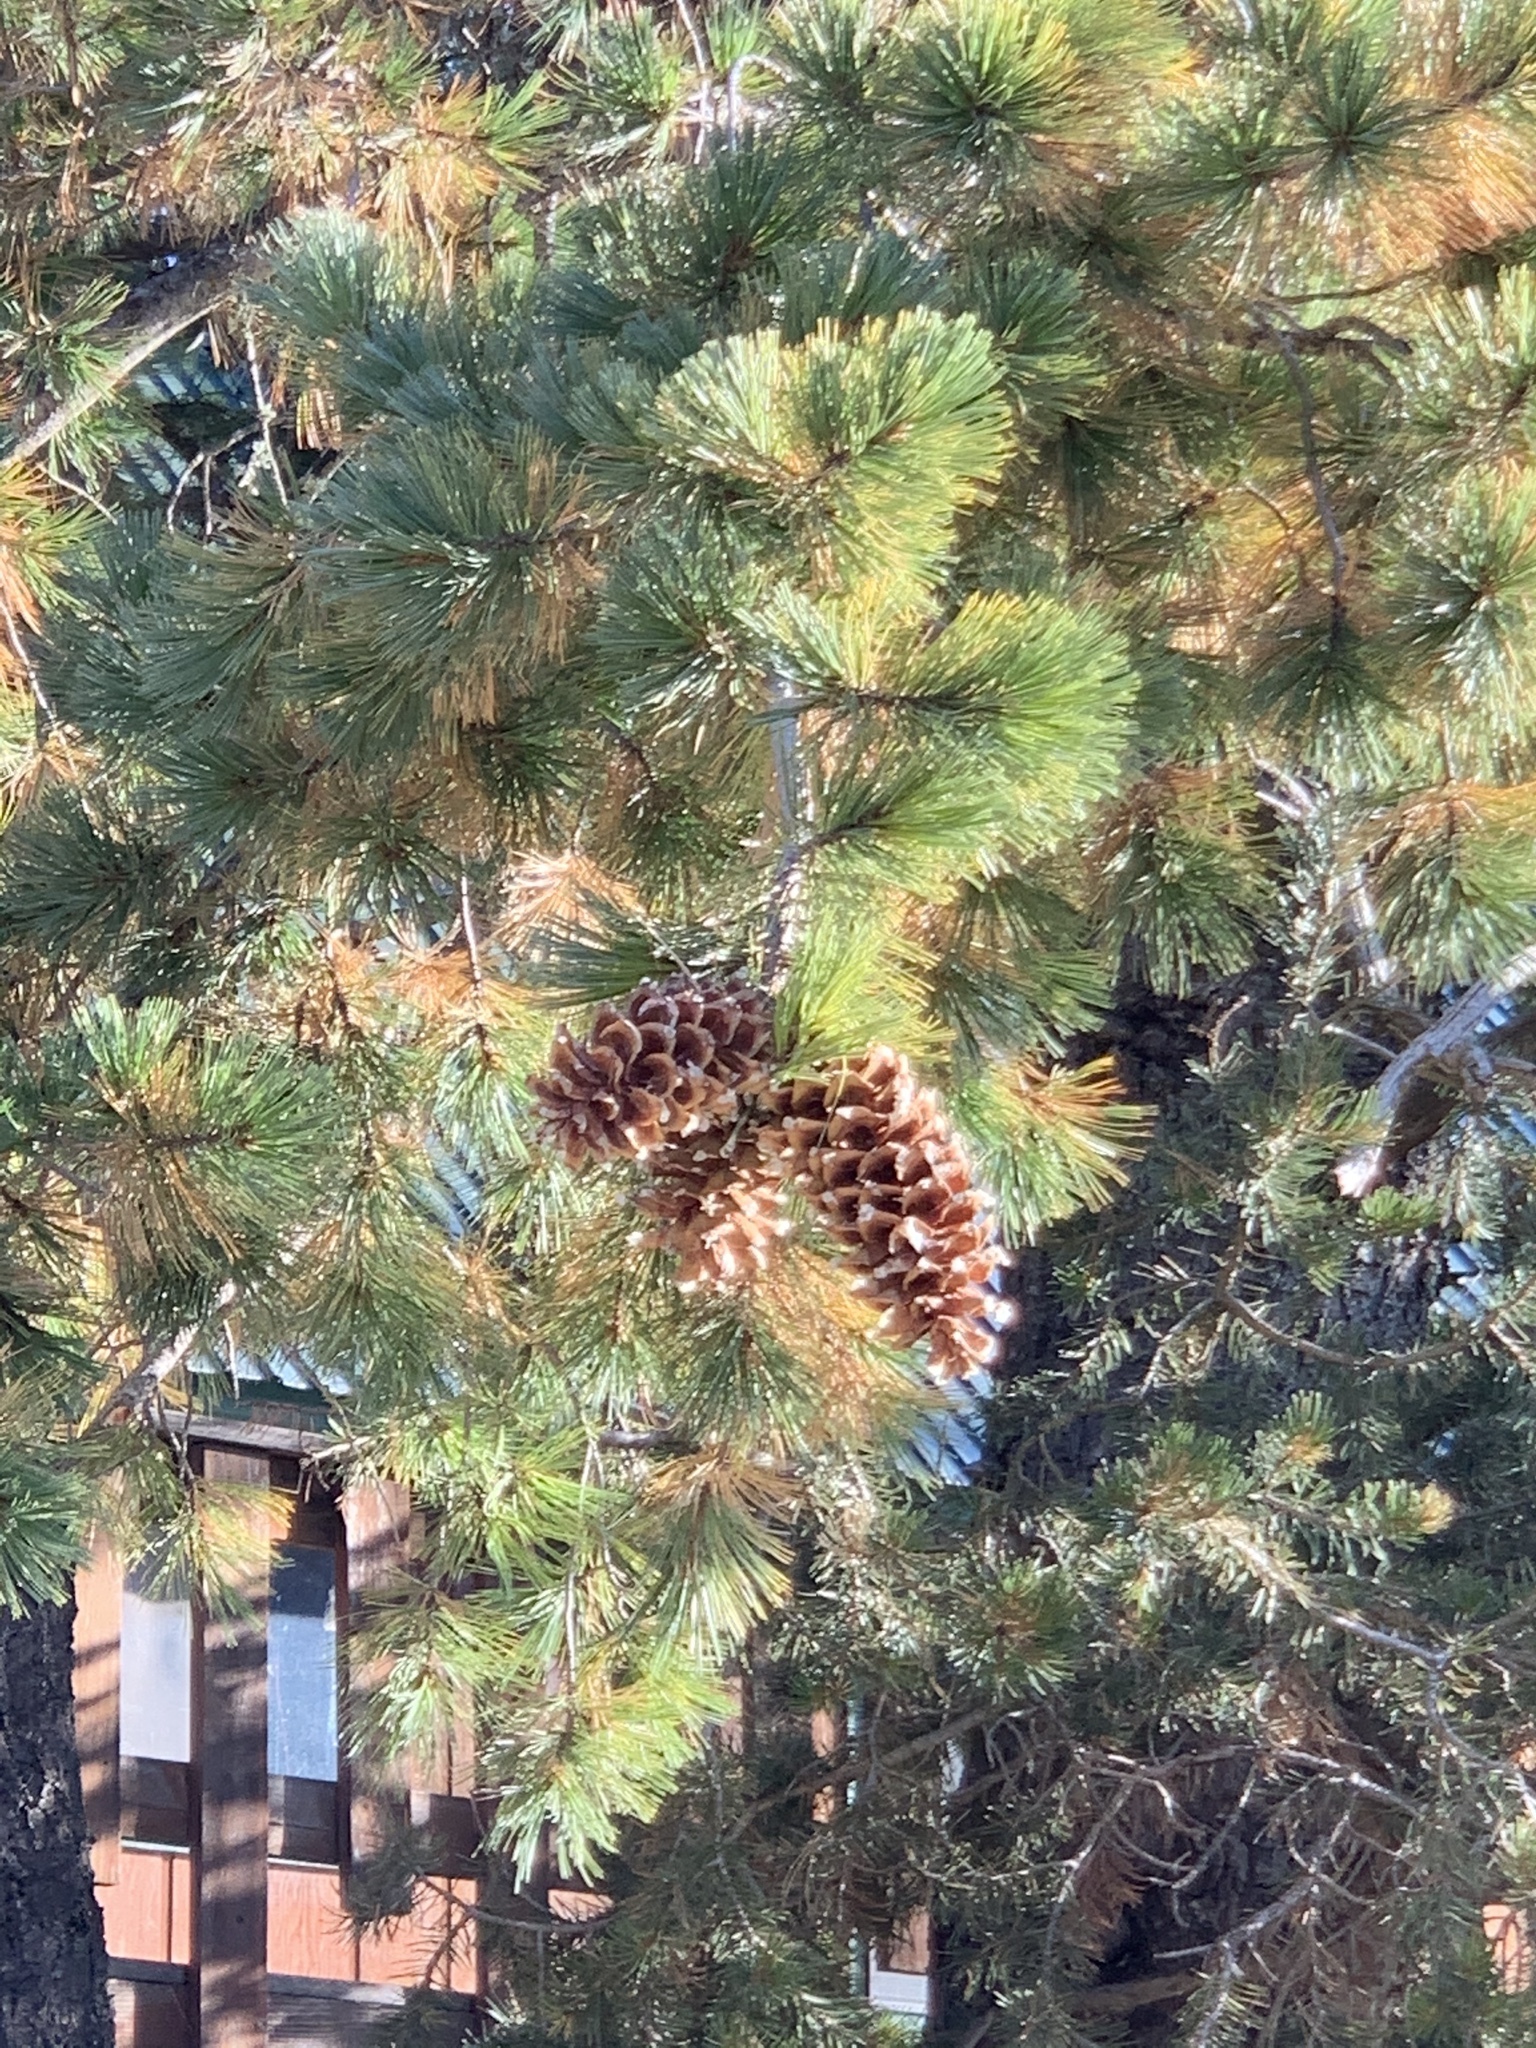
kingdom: Plantae
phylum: Tracheophyta
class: Pinopsida
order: Pinales
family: Pinaceae
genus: Pinus
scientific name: Pinus strobiformis
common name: Southwestern white pine
